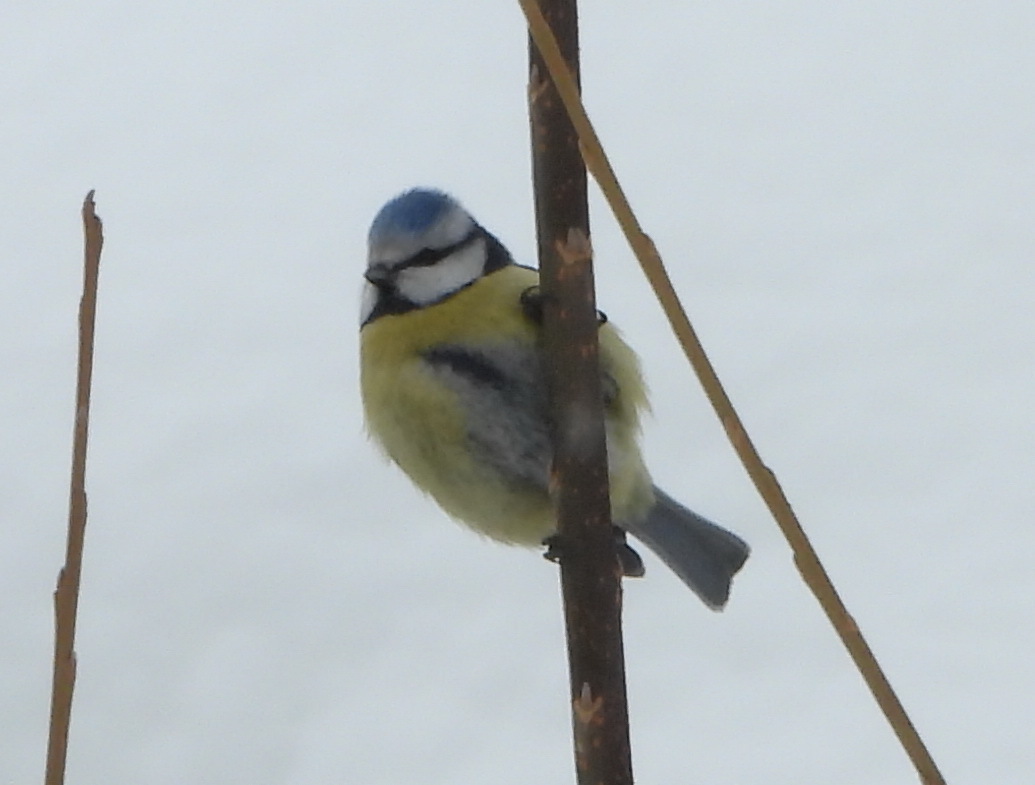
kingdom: Animalia
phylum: Chordata
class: Aves
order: Passeriformes
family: Paridae
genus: Cyanistes
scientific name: Cyanistes caeruleus
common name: Eurasian blue tit
